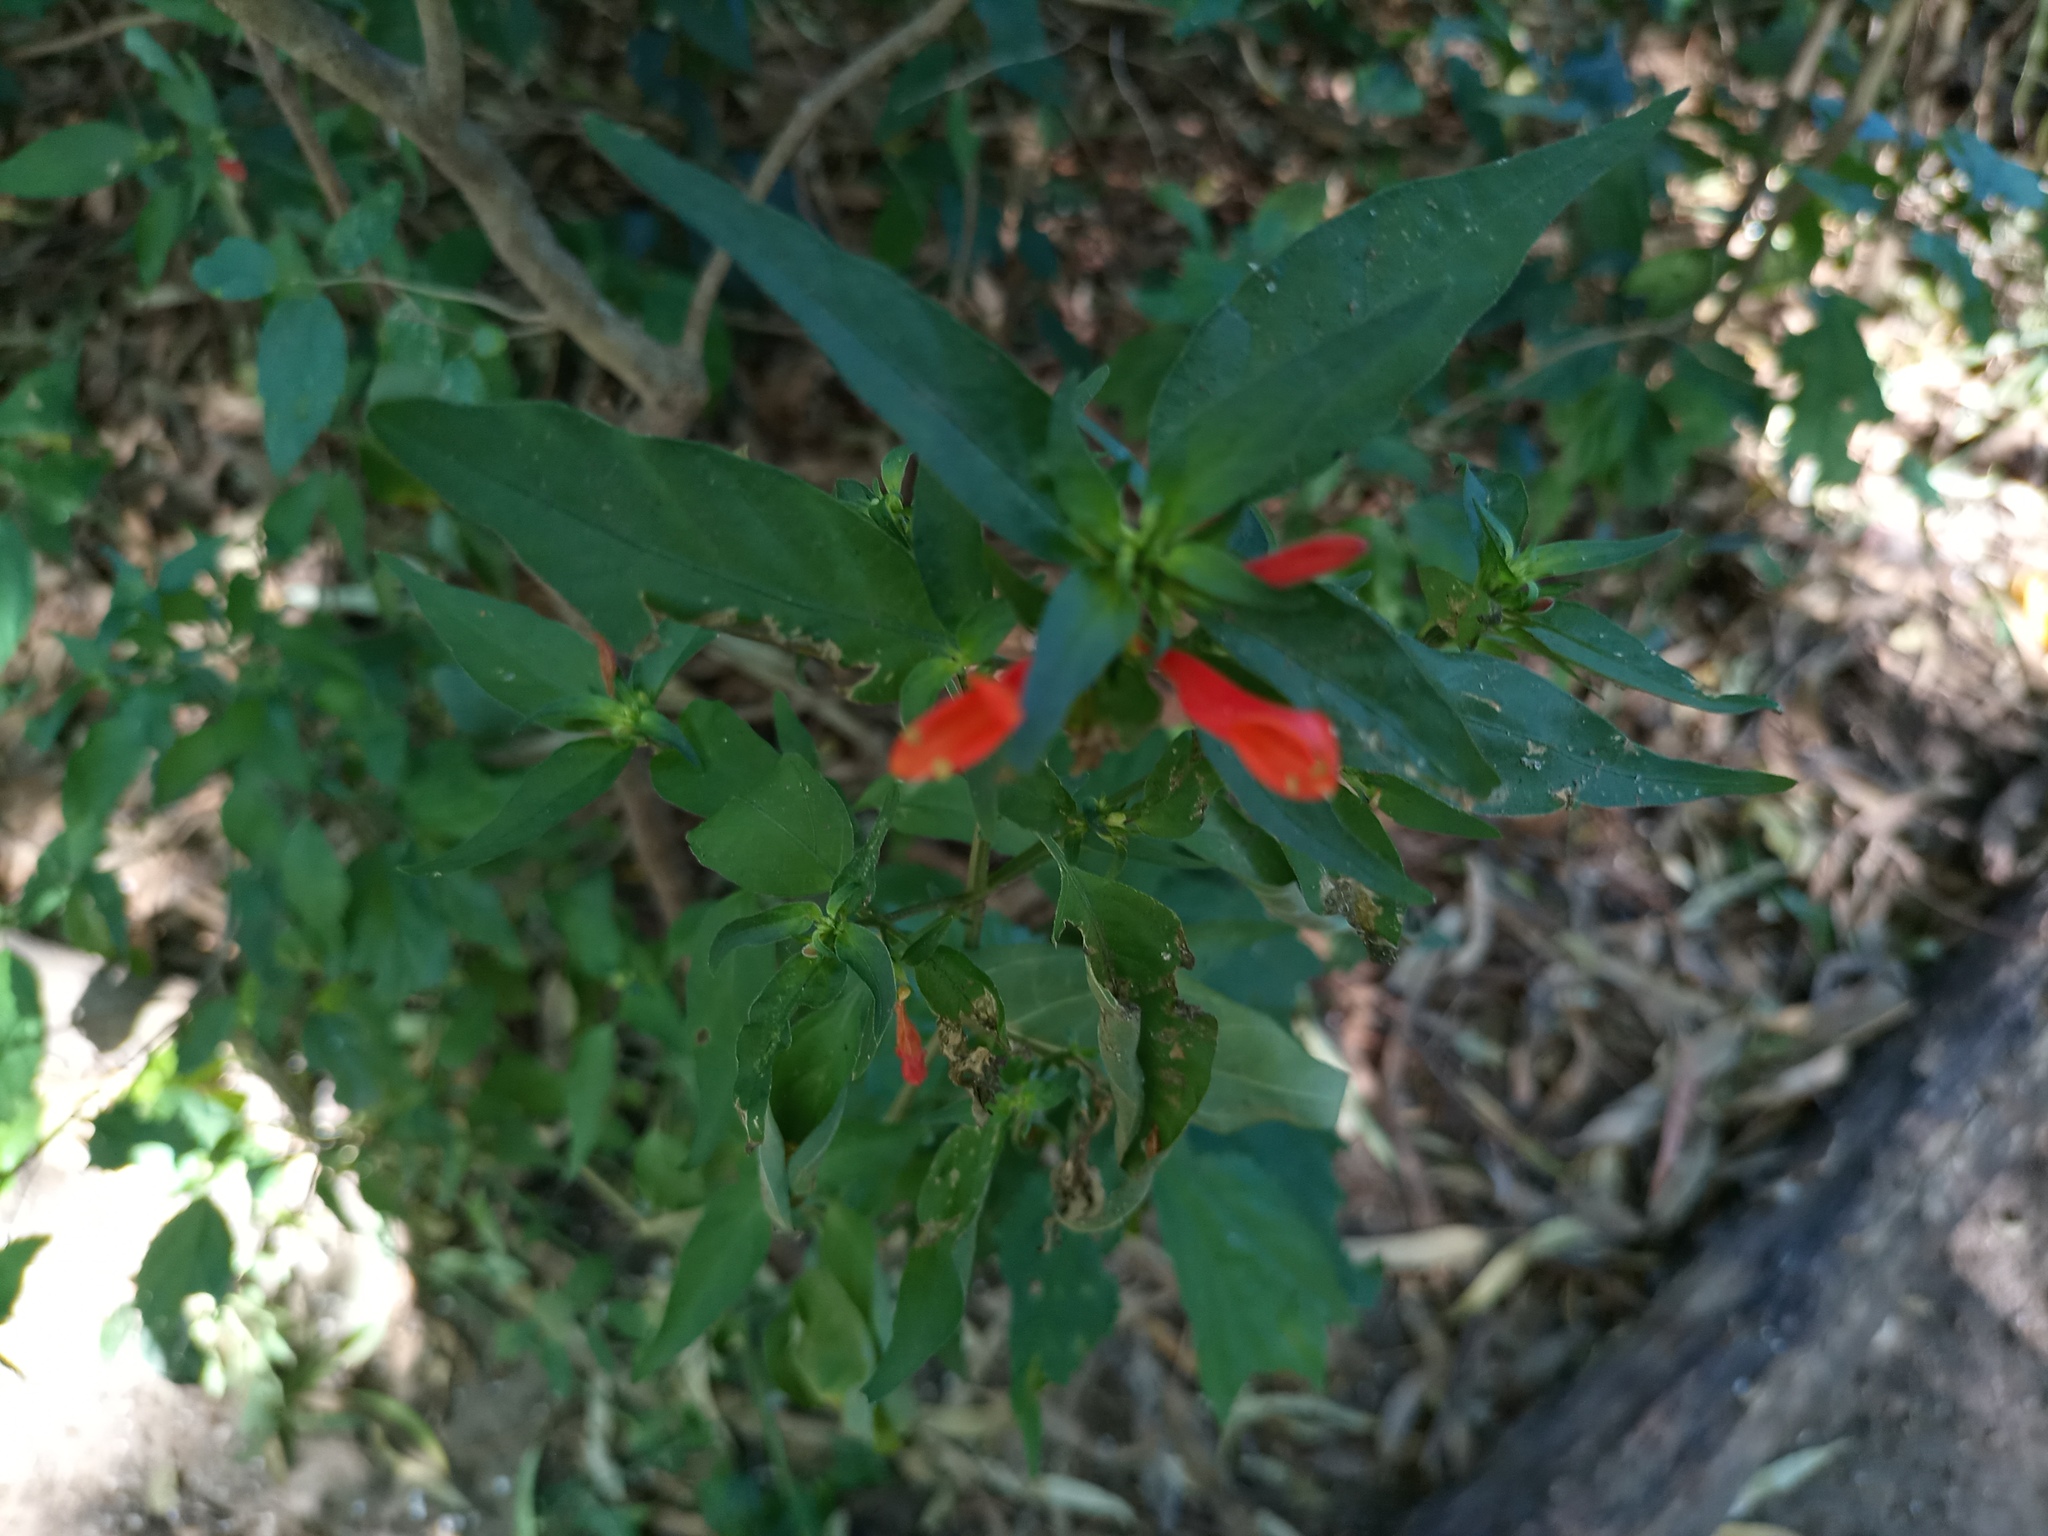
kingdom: Plantae
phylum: Tracheophyta
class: Magnoliopsida
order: Lamiales
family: Acanthaceae
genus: Dicliptera
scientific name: Dicliptera squarrosa
